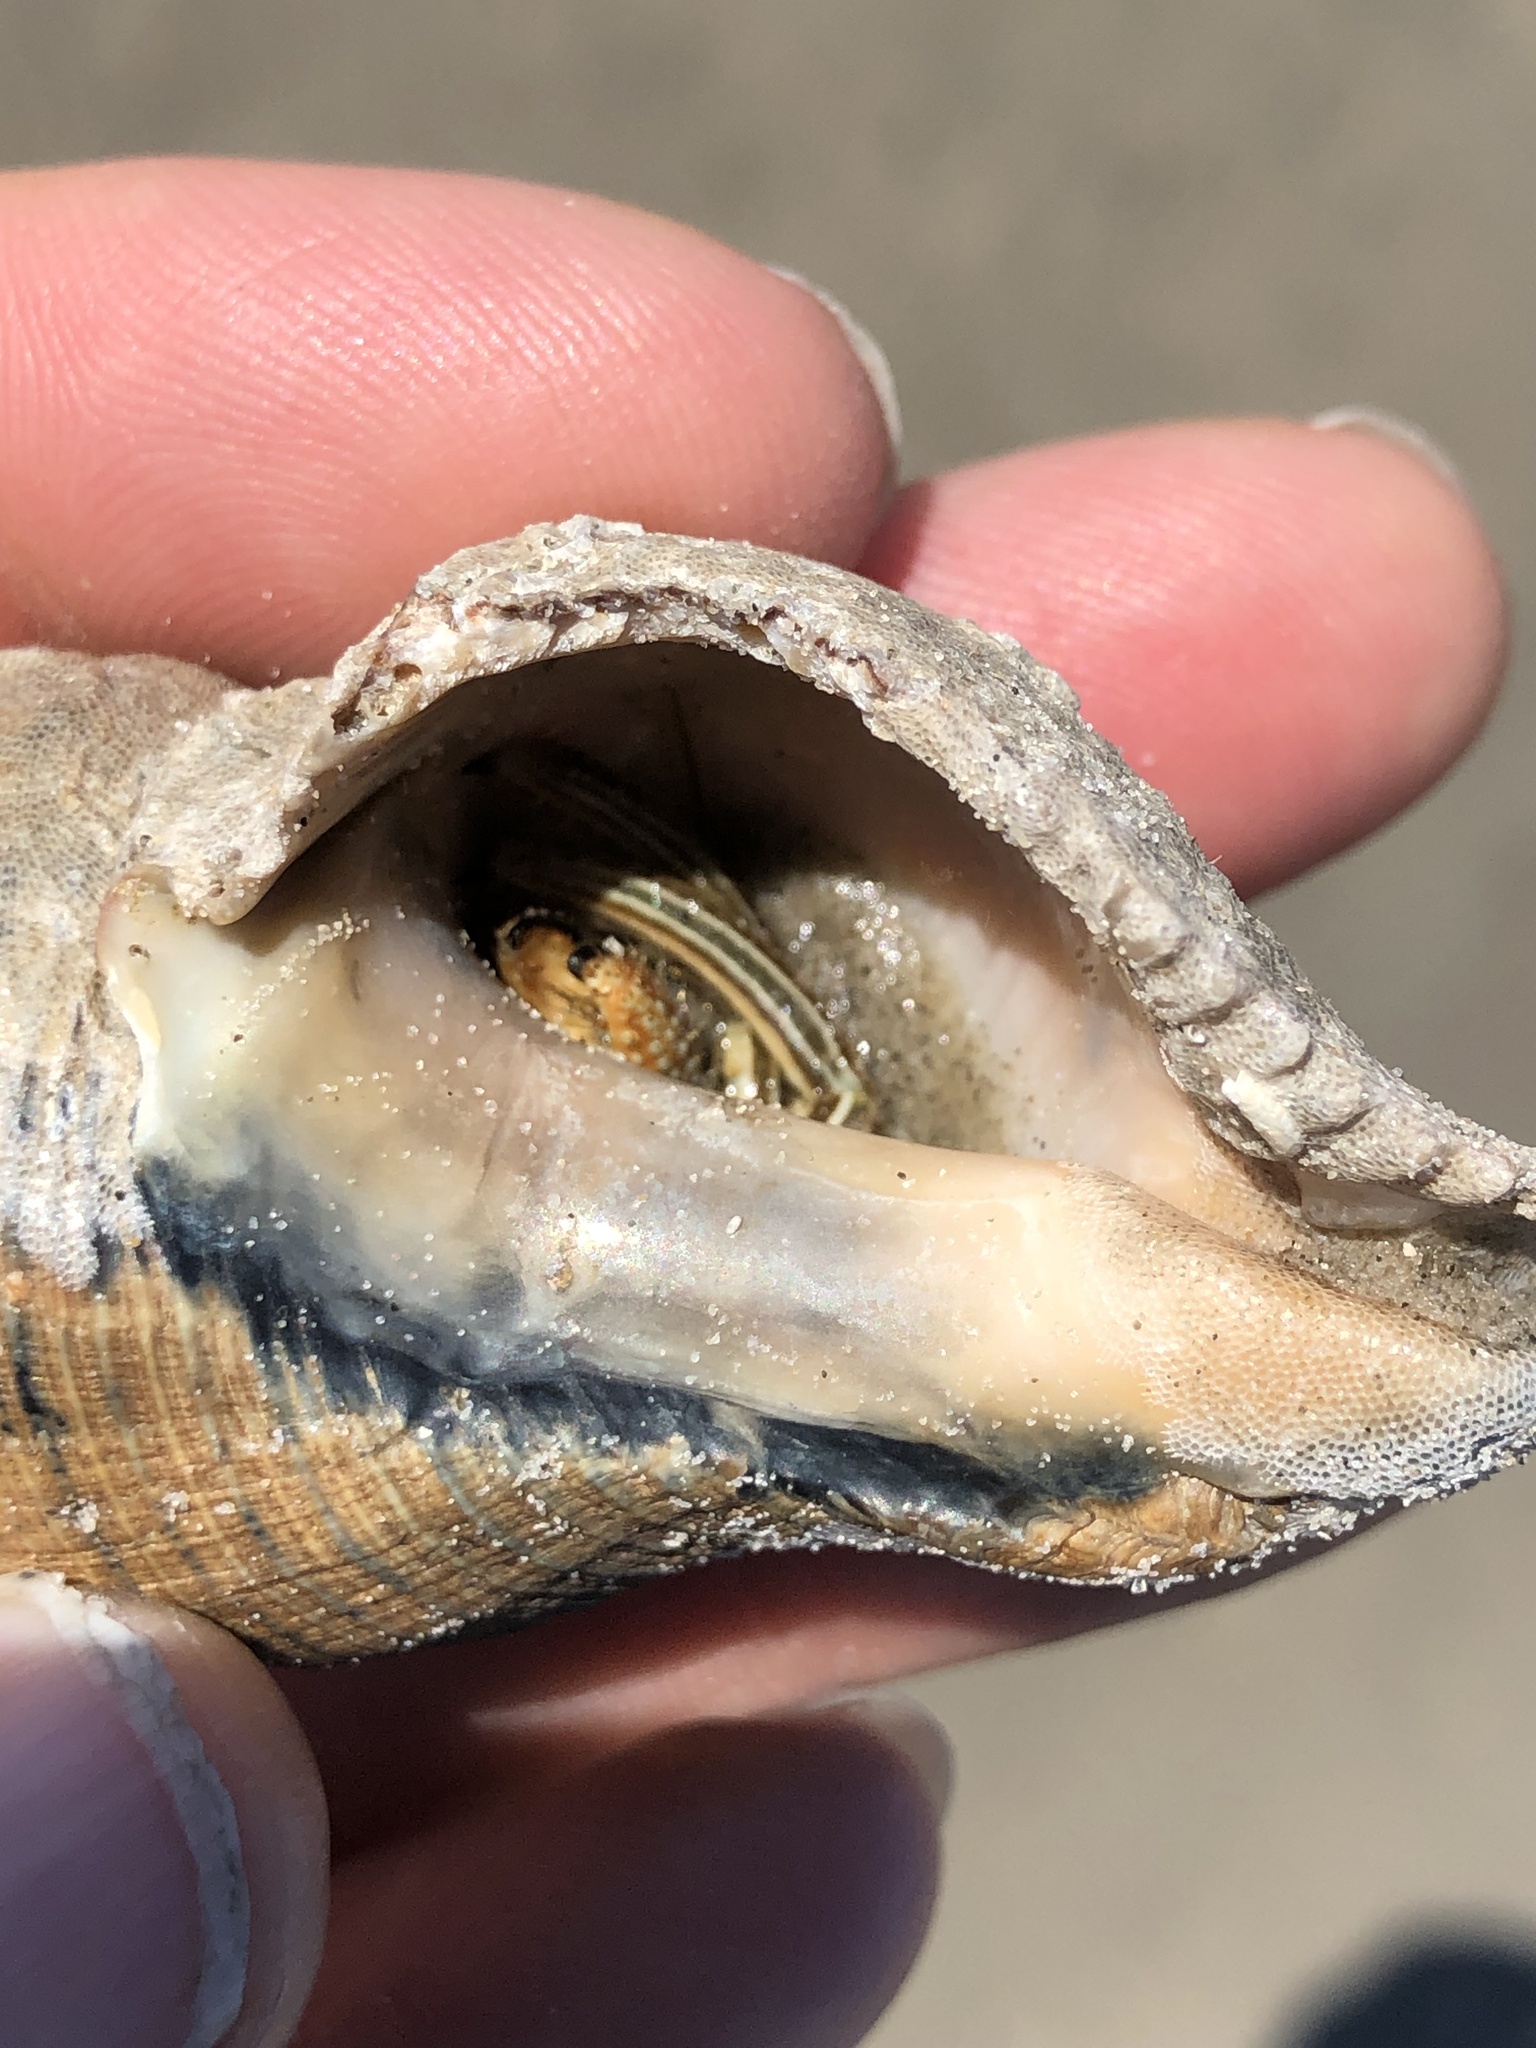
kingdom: Animalia
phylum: Arthropoda
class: Malacostraca
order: Decapoda
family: Diogenidae
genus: Clibanarius
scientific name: Clibanarius vittatus
